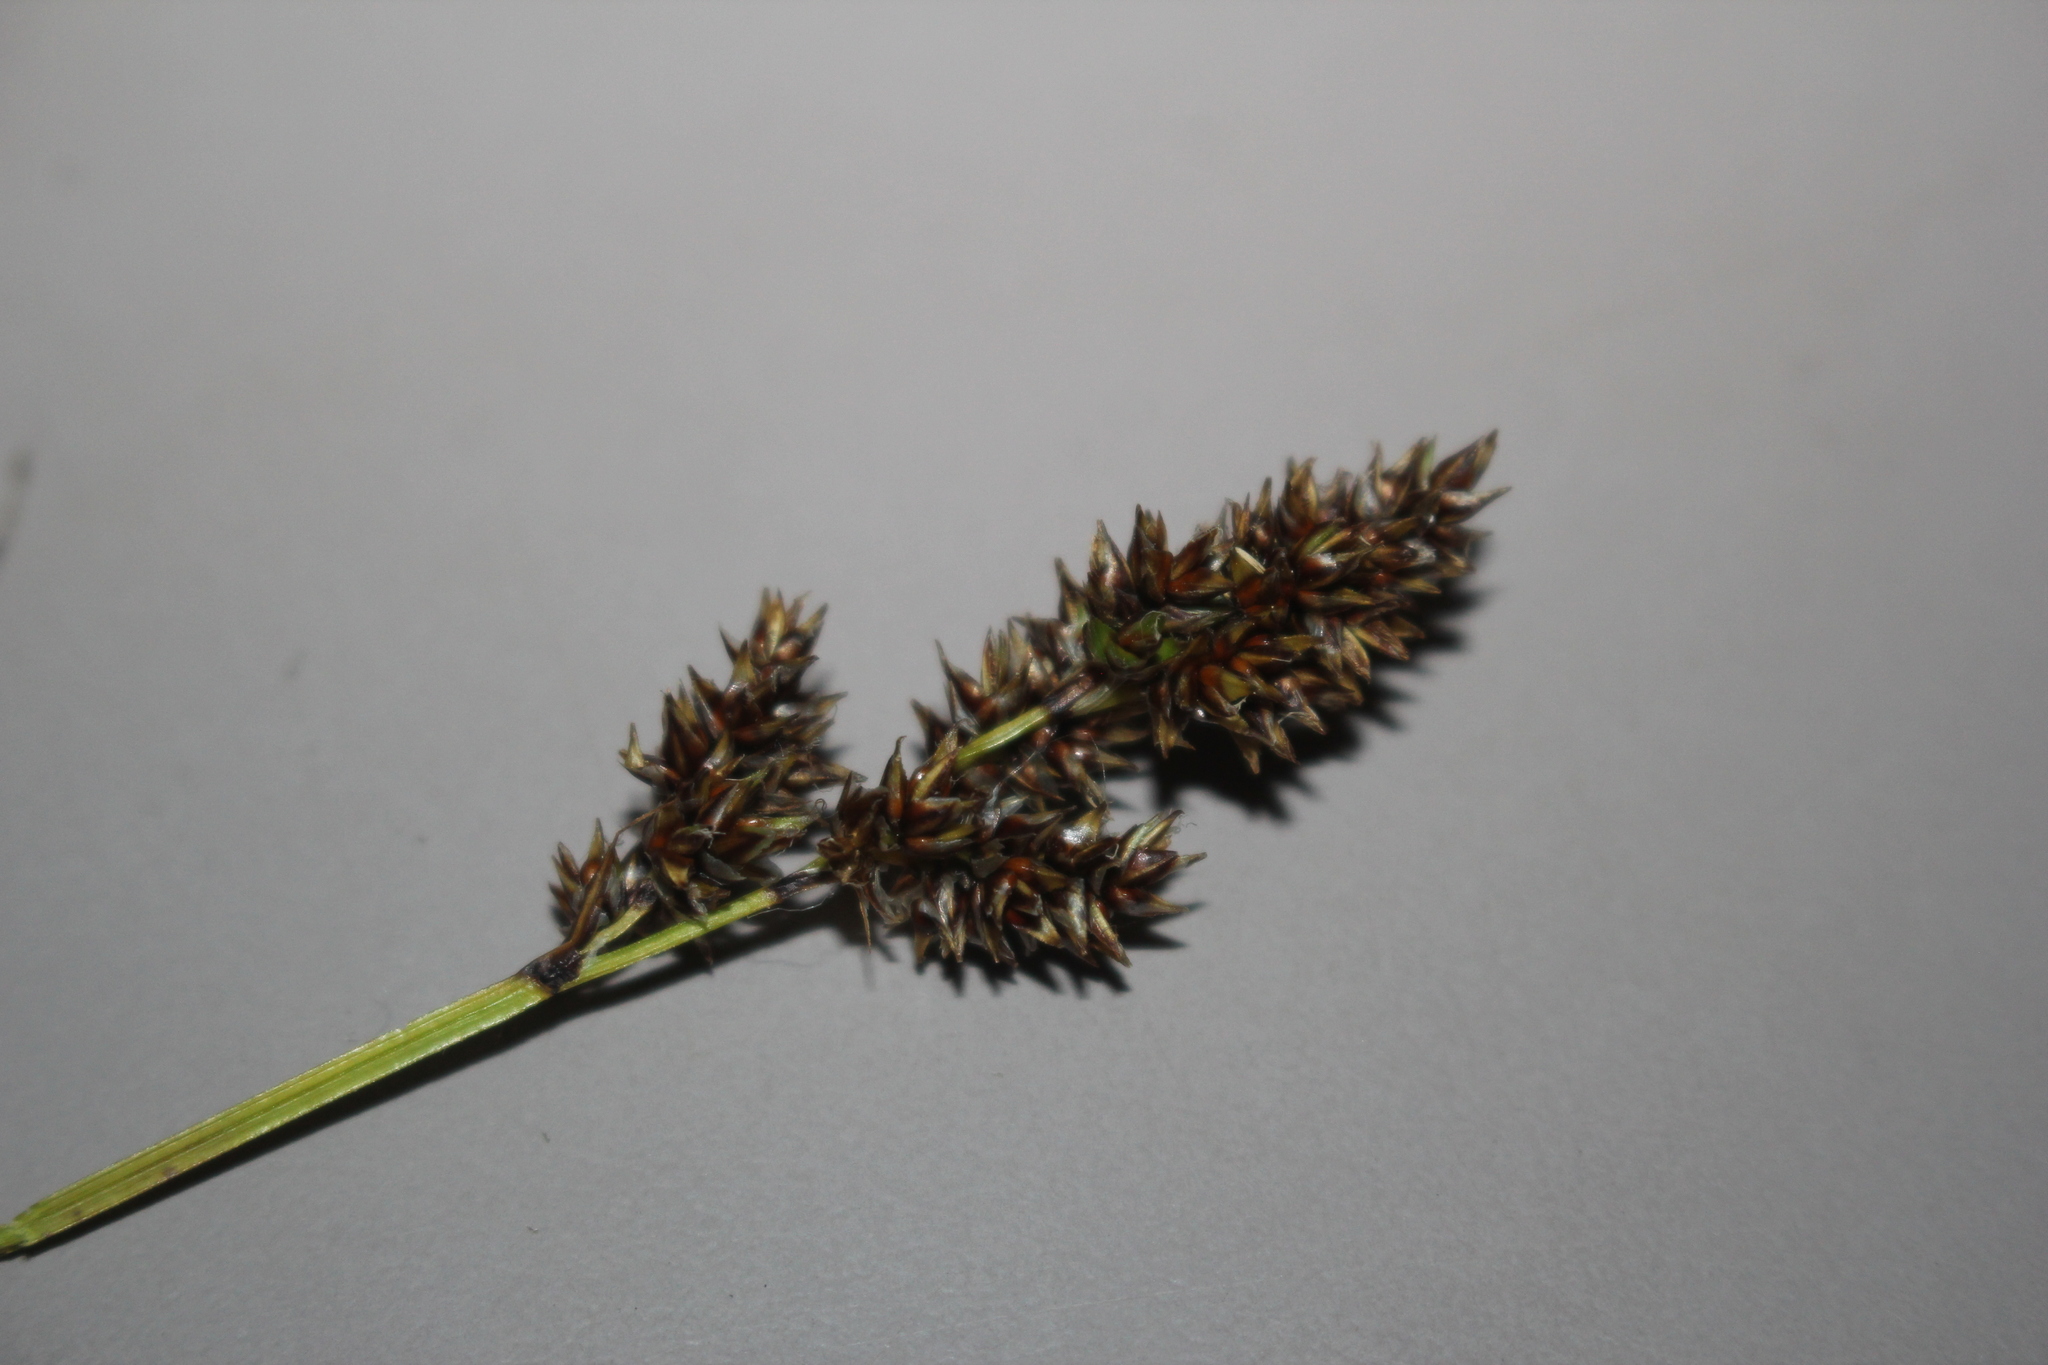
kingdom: Plantae
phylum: Tracheophyta
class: Liliopsida
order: Poales
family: Cyperaceae
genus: Carex
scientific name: Carex diandra
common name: Lesser tussock-sedge
